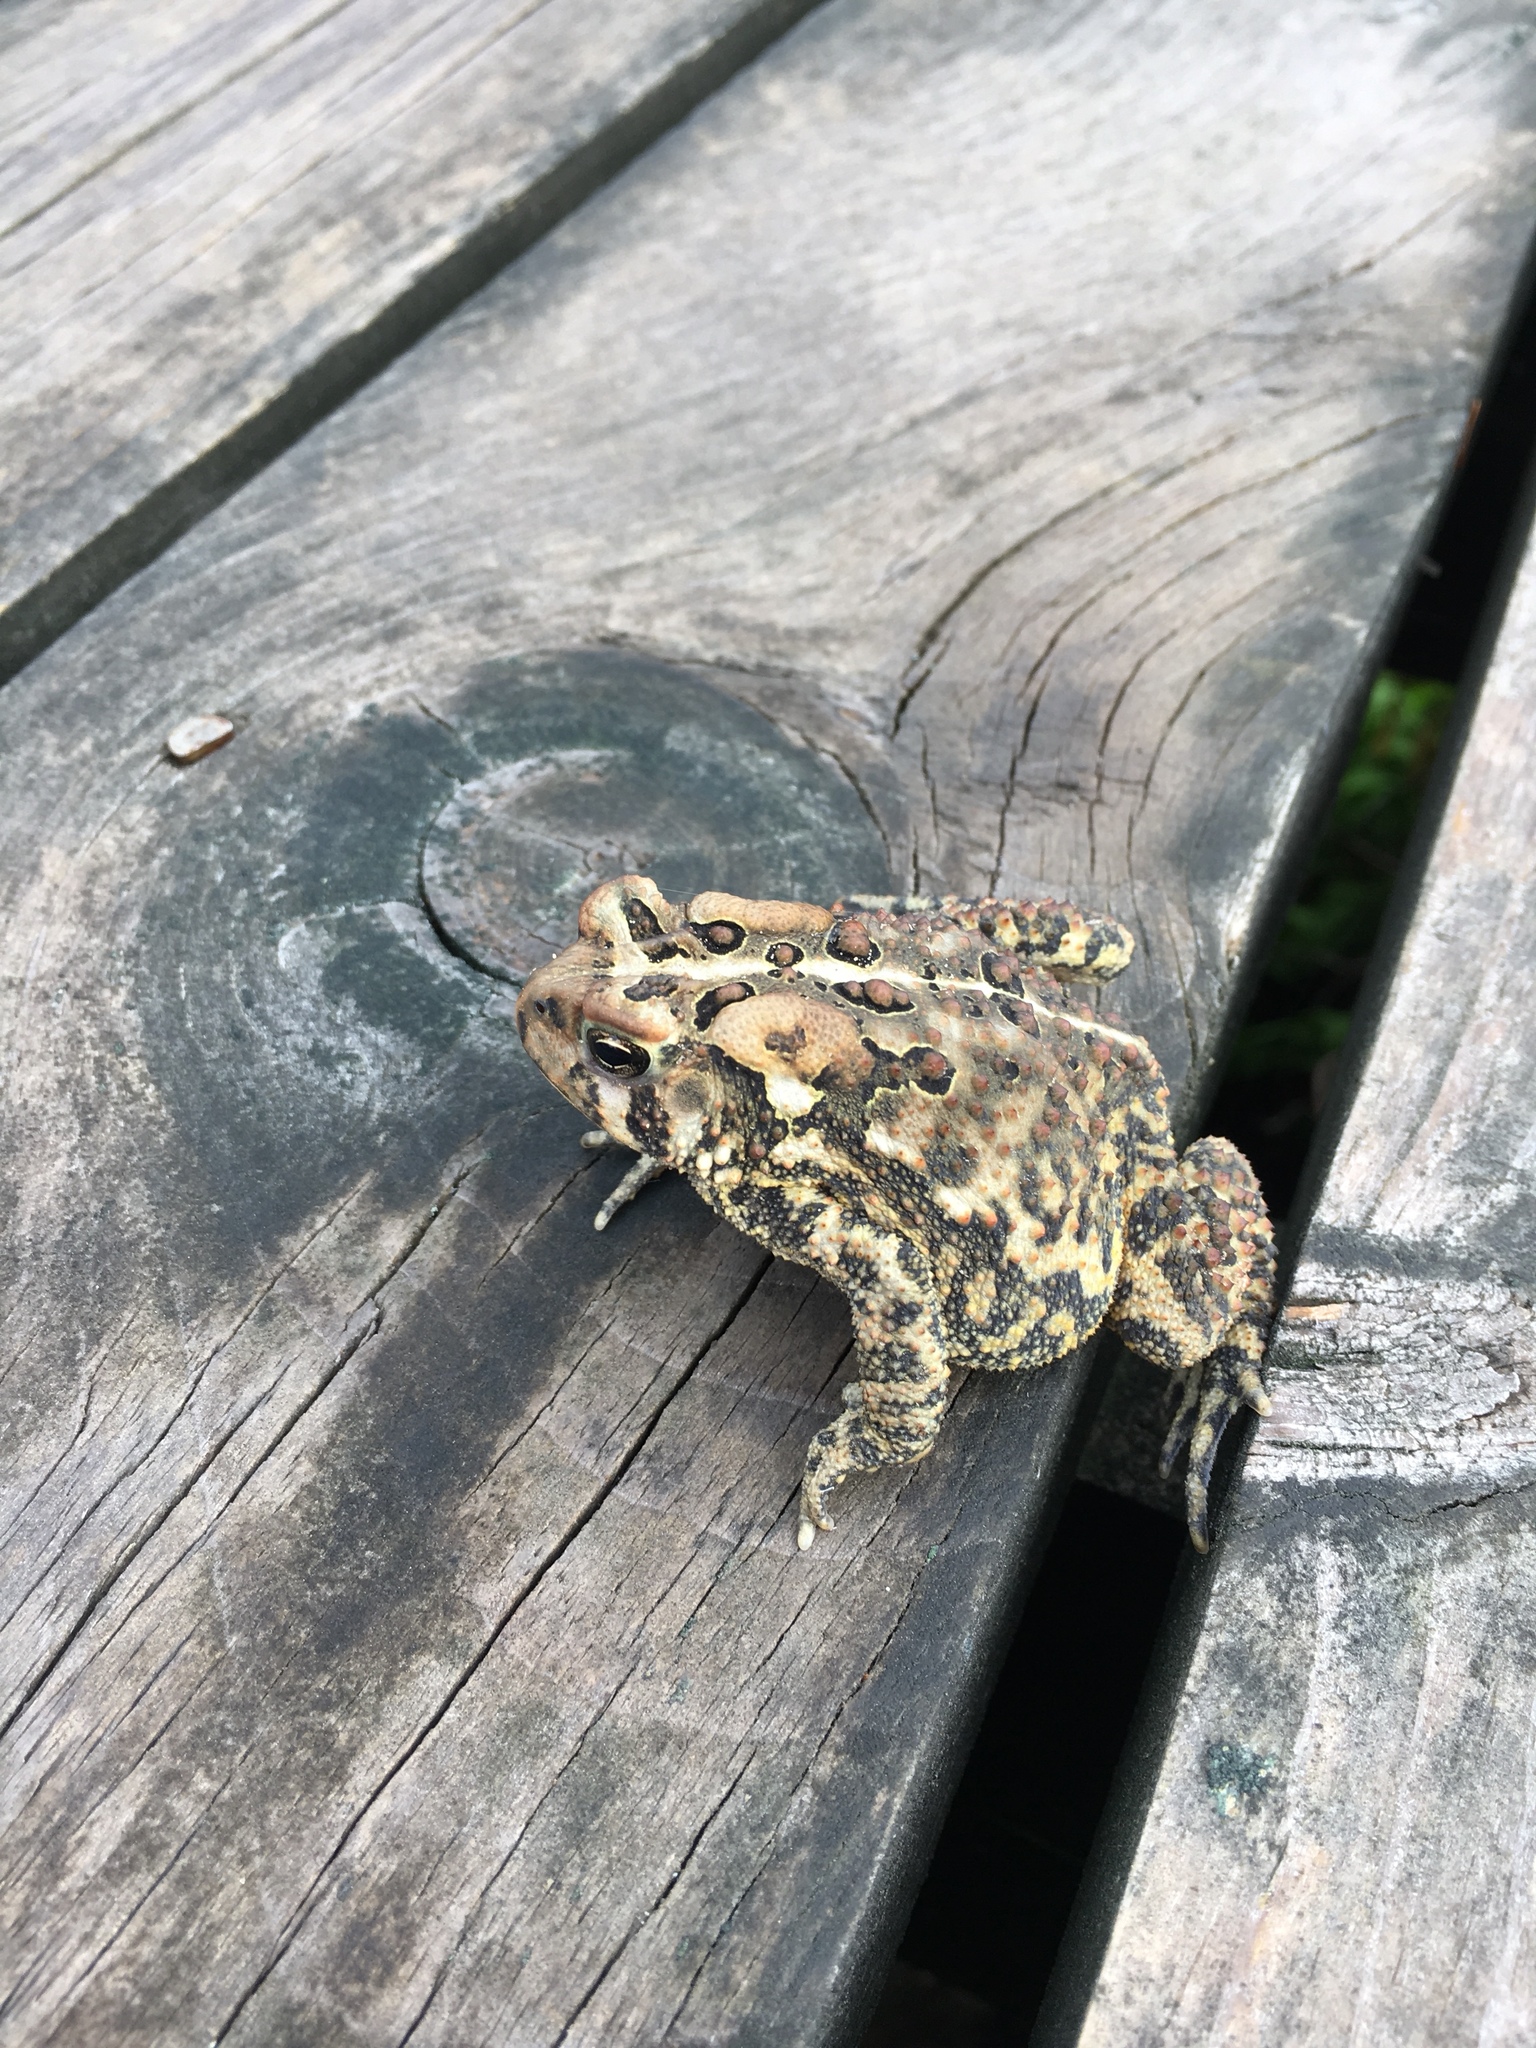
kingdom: Animalia
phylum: Chordata
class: Amphibia
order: Anura
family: Bufonidae
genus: Anaxyrus
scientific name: Anaxyrus americanus
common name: American toad
